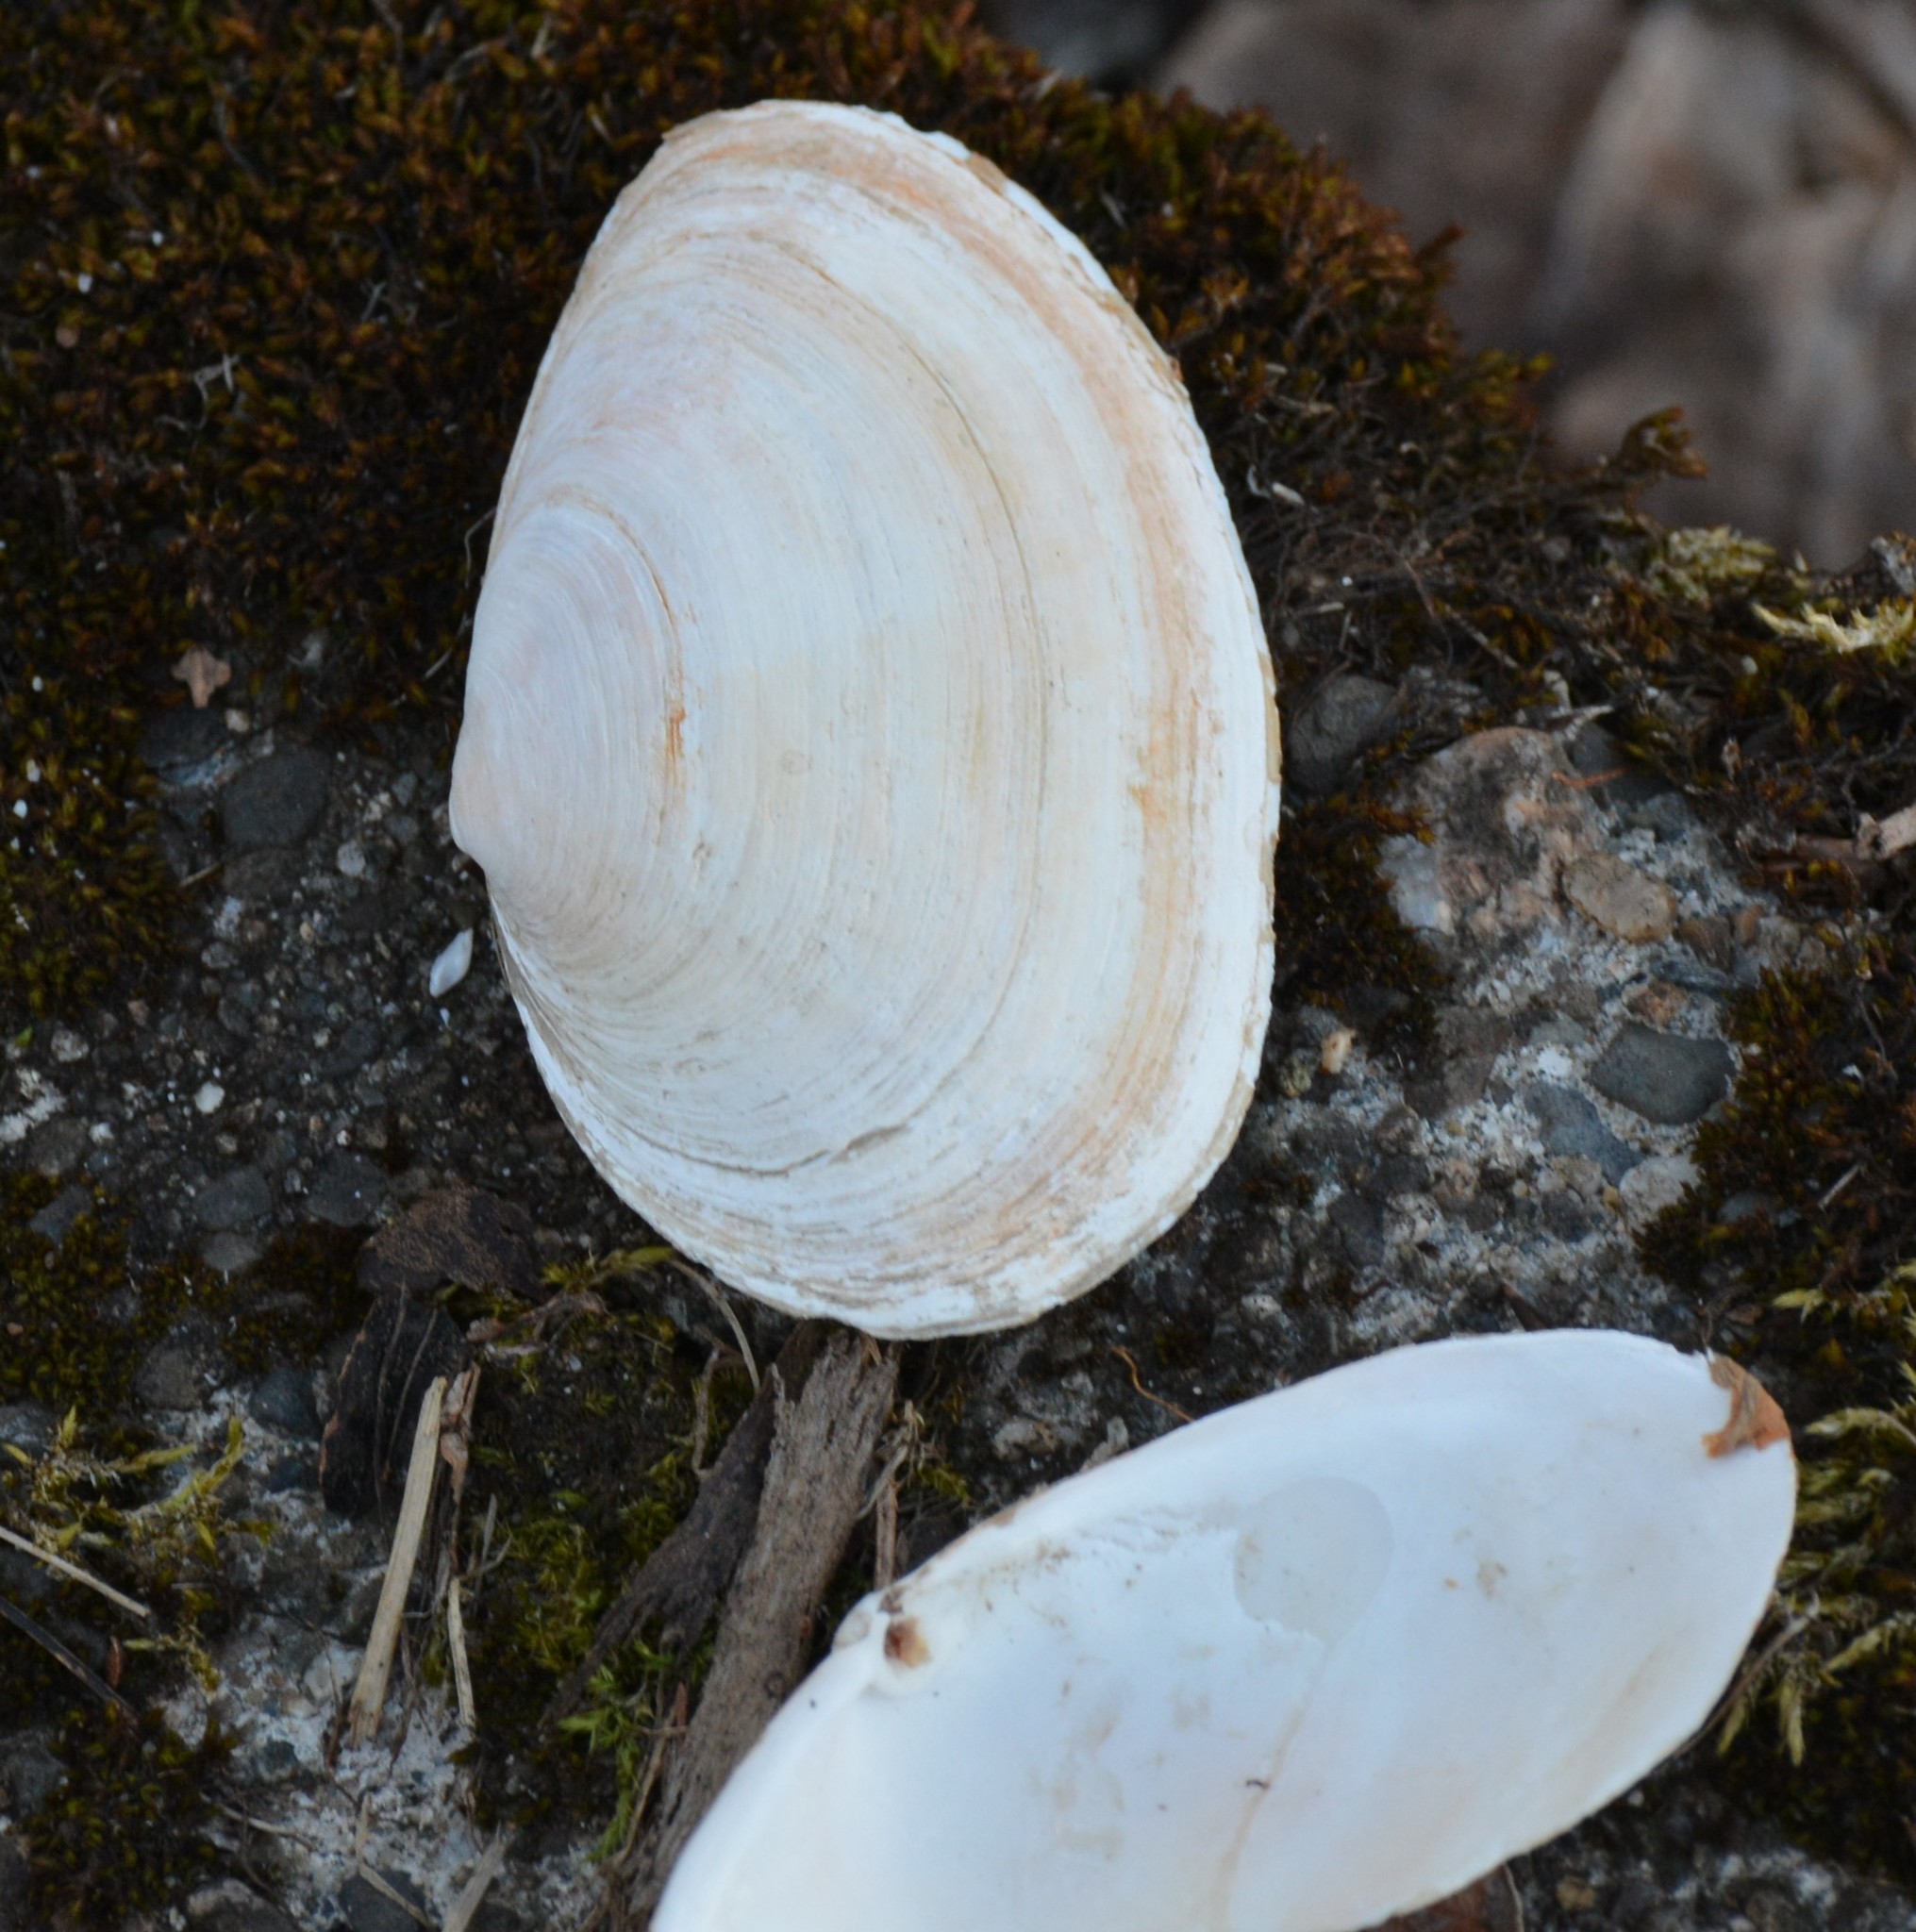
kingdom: Animalia
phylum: Mollusca
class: Bivalvia
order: Myida
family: Myidae
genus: Mya
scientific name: Mya arenaria
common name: Soft-shelled clam
